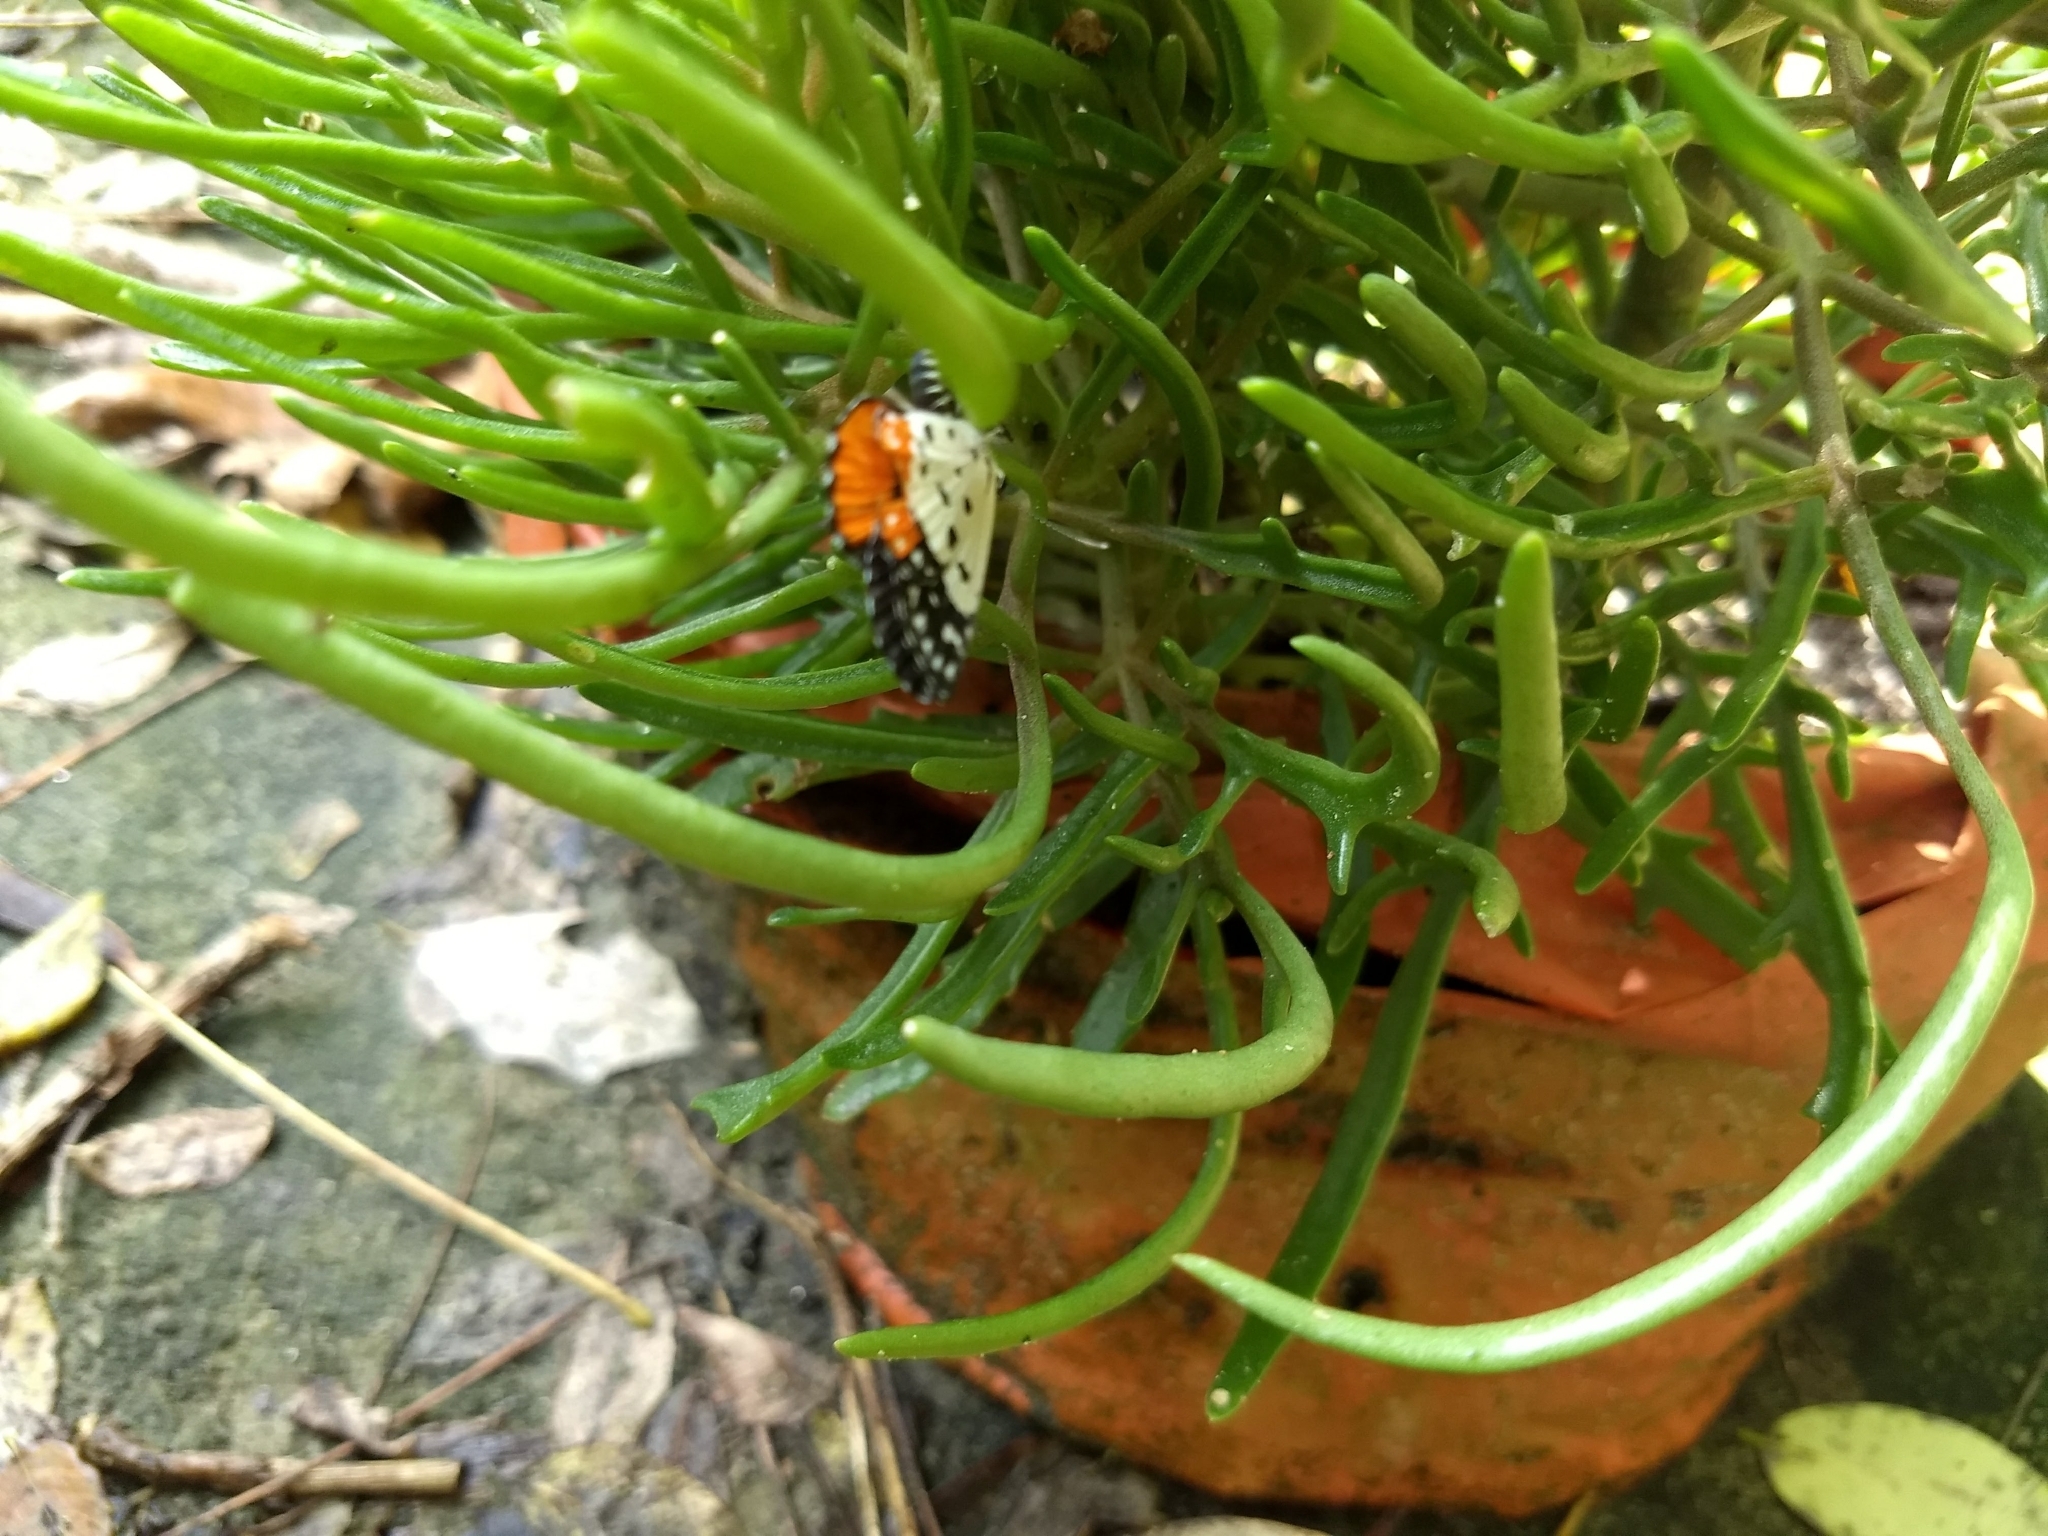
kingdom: Animalia
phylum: Arthropoda
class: Insecta
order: Lepidoptera
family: Lycaenidae
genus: Talicada
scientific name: Talicada nyseus
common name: Red pierrot
